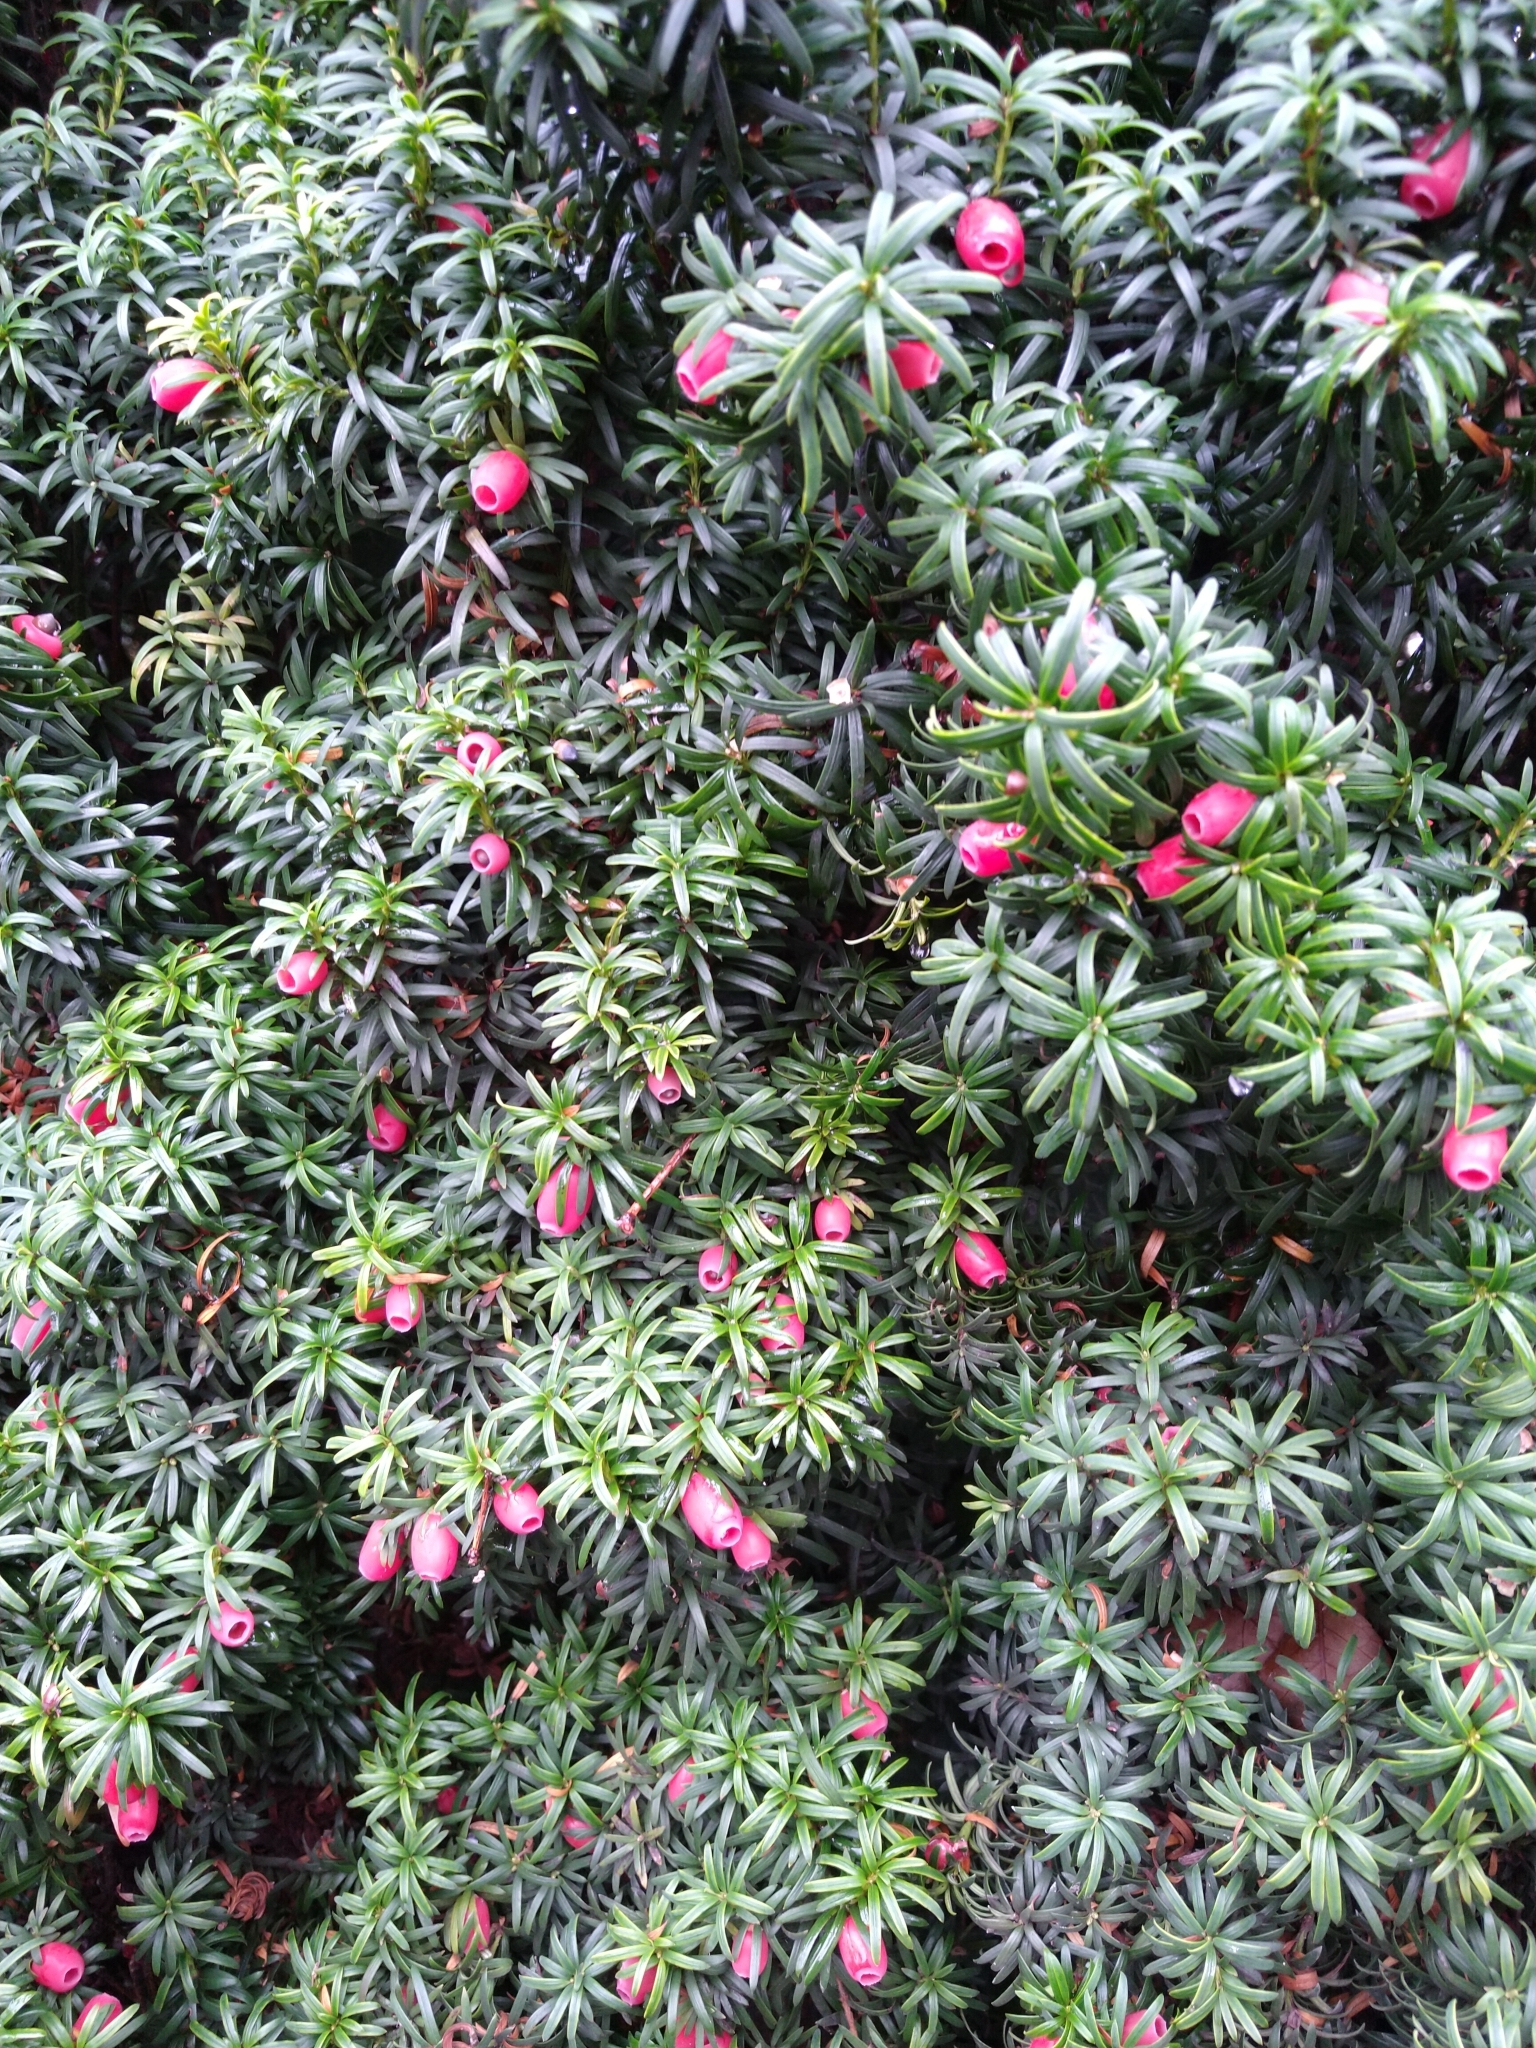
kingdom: Plantae
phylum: Tracheophyta
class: Pinopsida
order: Pinales
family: Taxaceae
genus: Taxus
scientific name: Taxus baccata
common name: Yew
